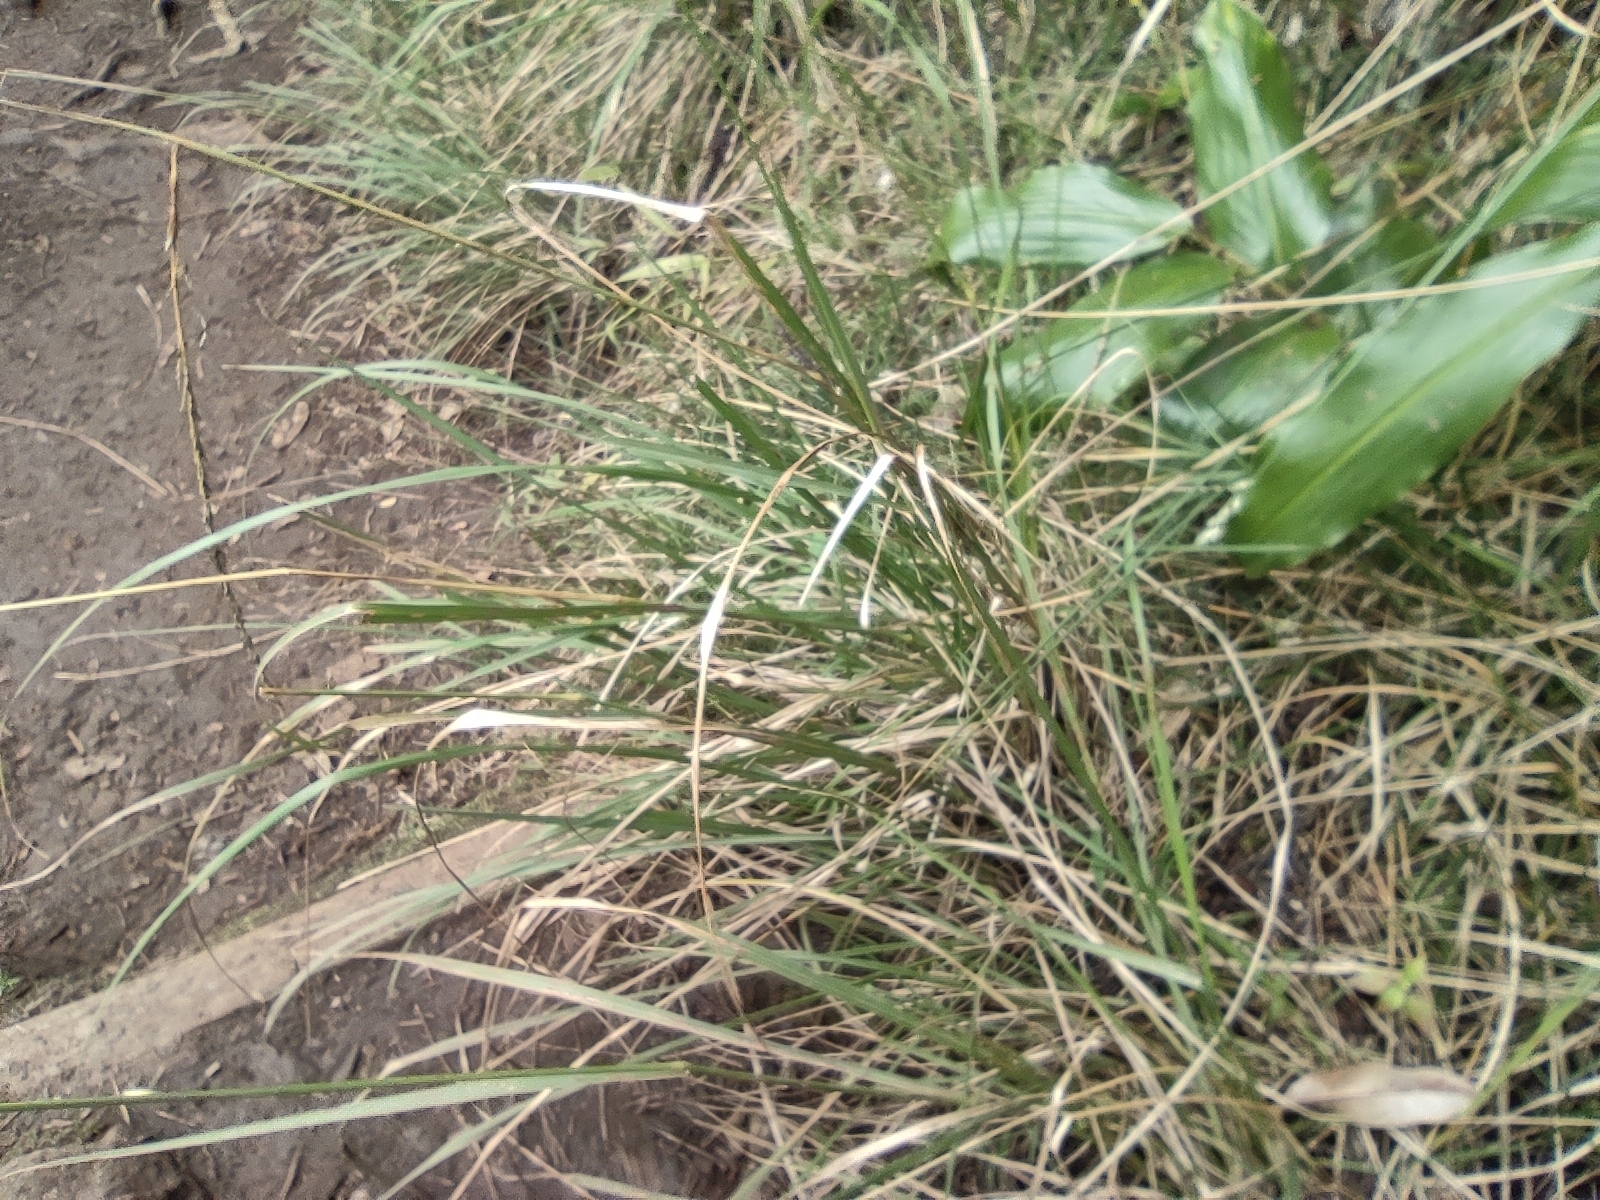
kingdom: Plantae
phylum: Tracheophyta
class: Liliopsida
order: Poales
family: Poaceae
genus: Sporobolus
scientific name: Sporobolus africanus
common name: African dropseed
